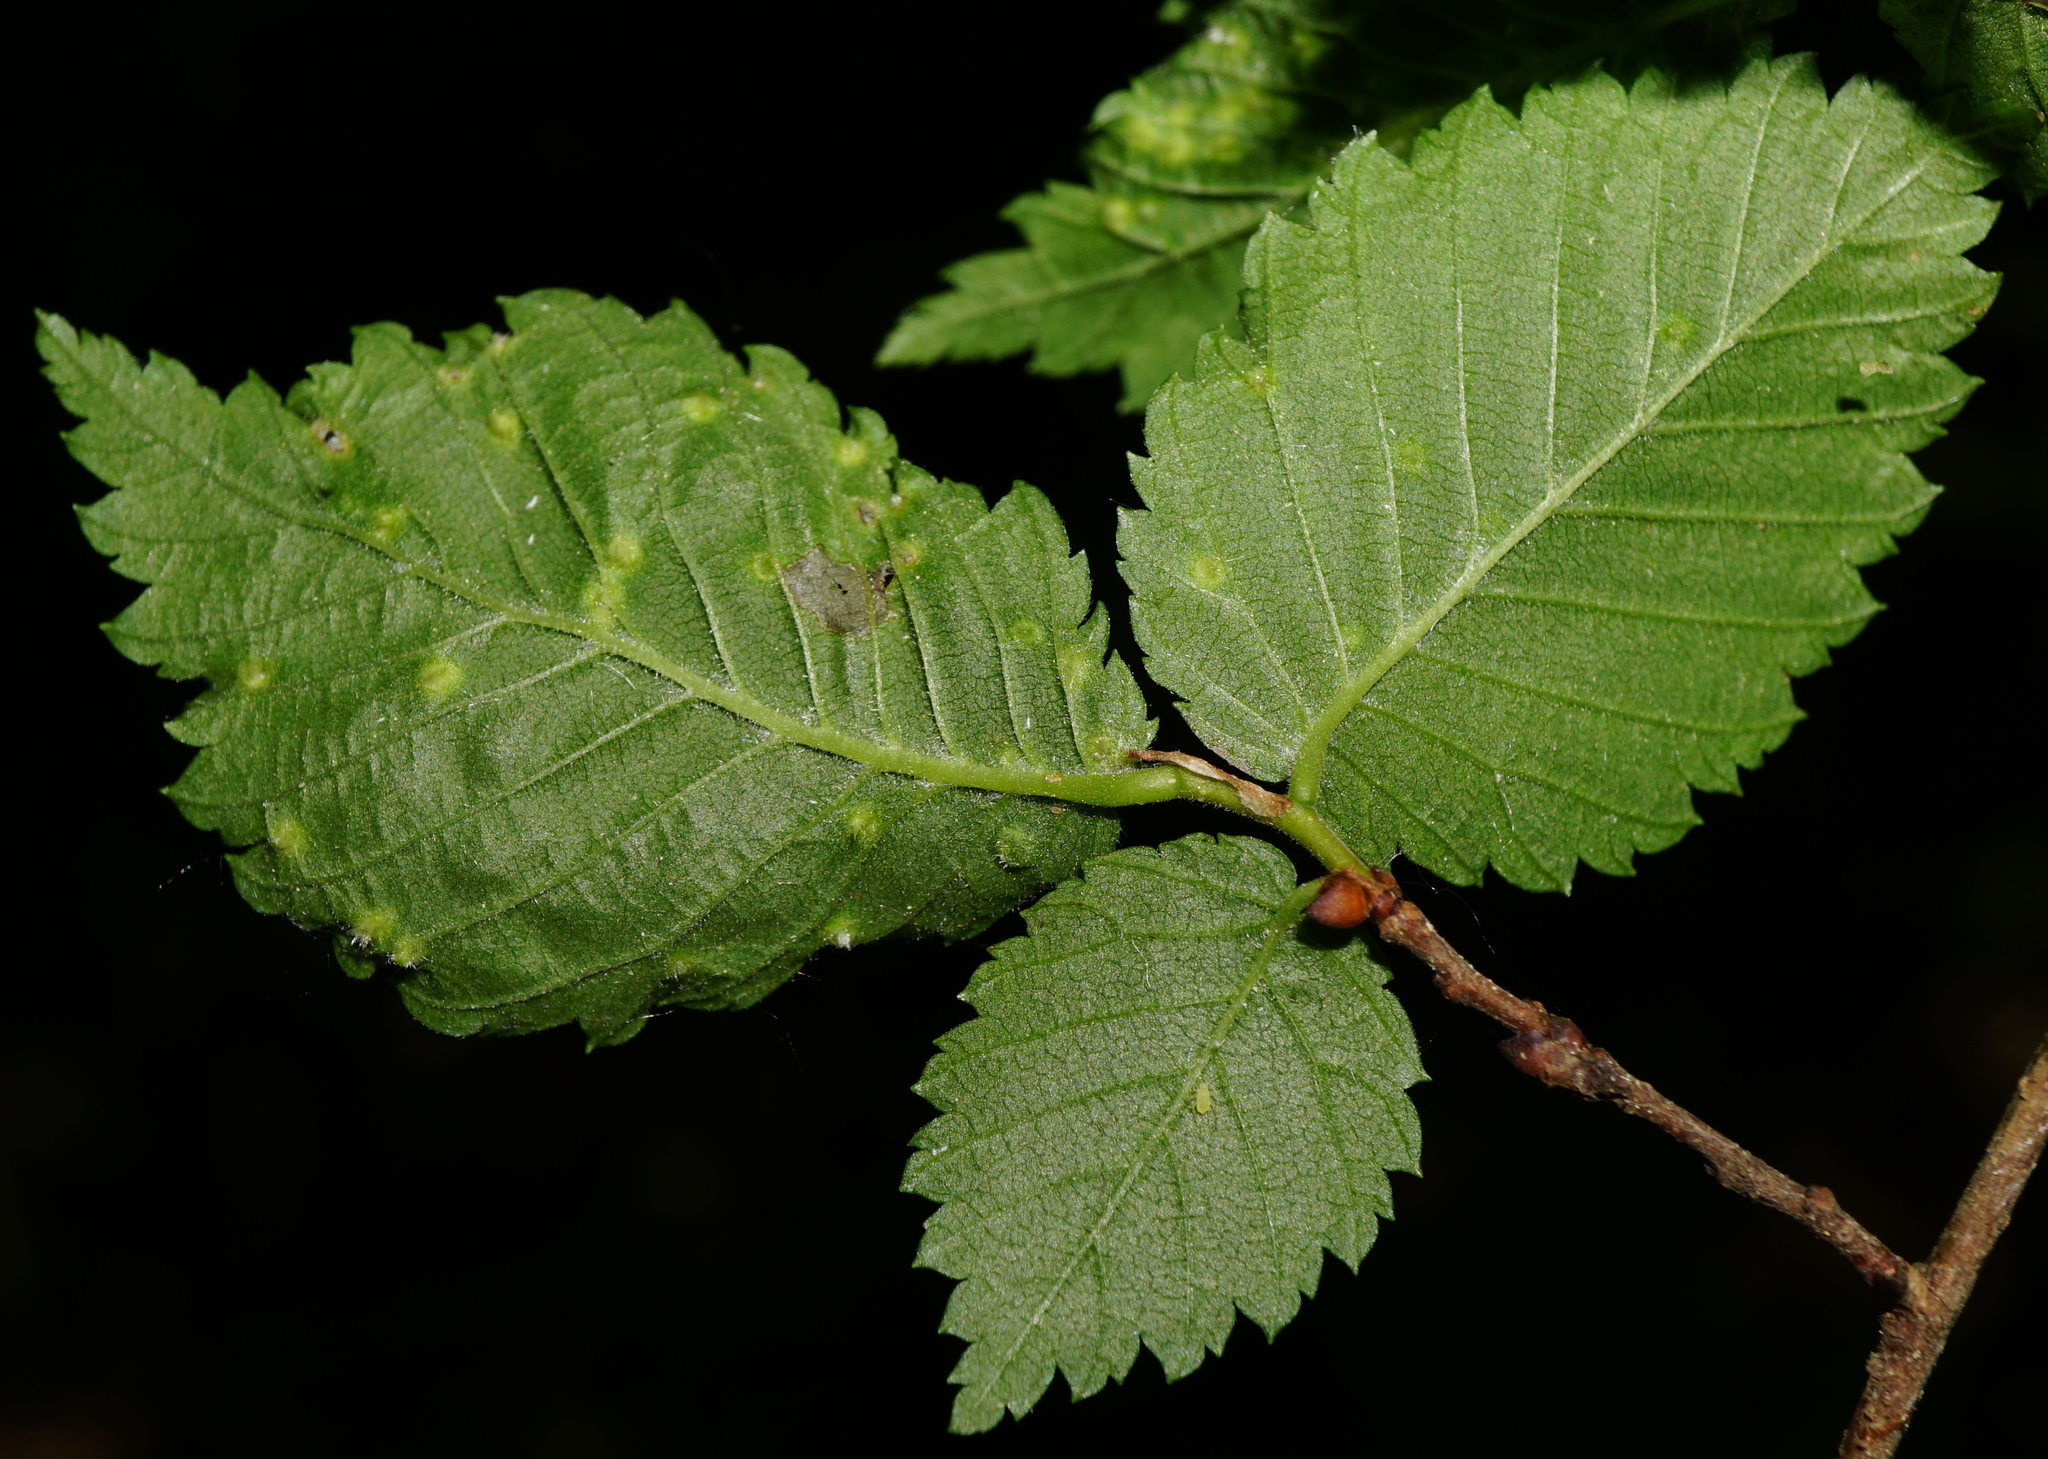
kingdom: Animalia
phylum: Arthropoda
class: Arachnida
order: Trombidiformes
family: Eriophyidae
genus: Aceria
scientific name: Aceria brevipunctata
